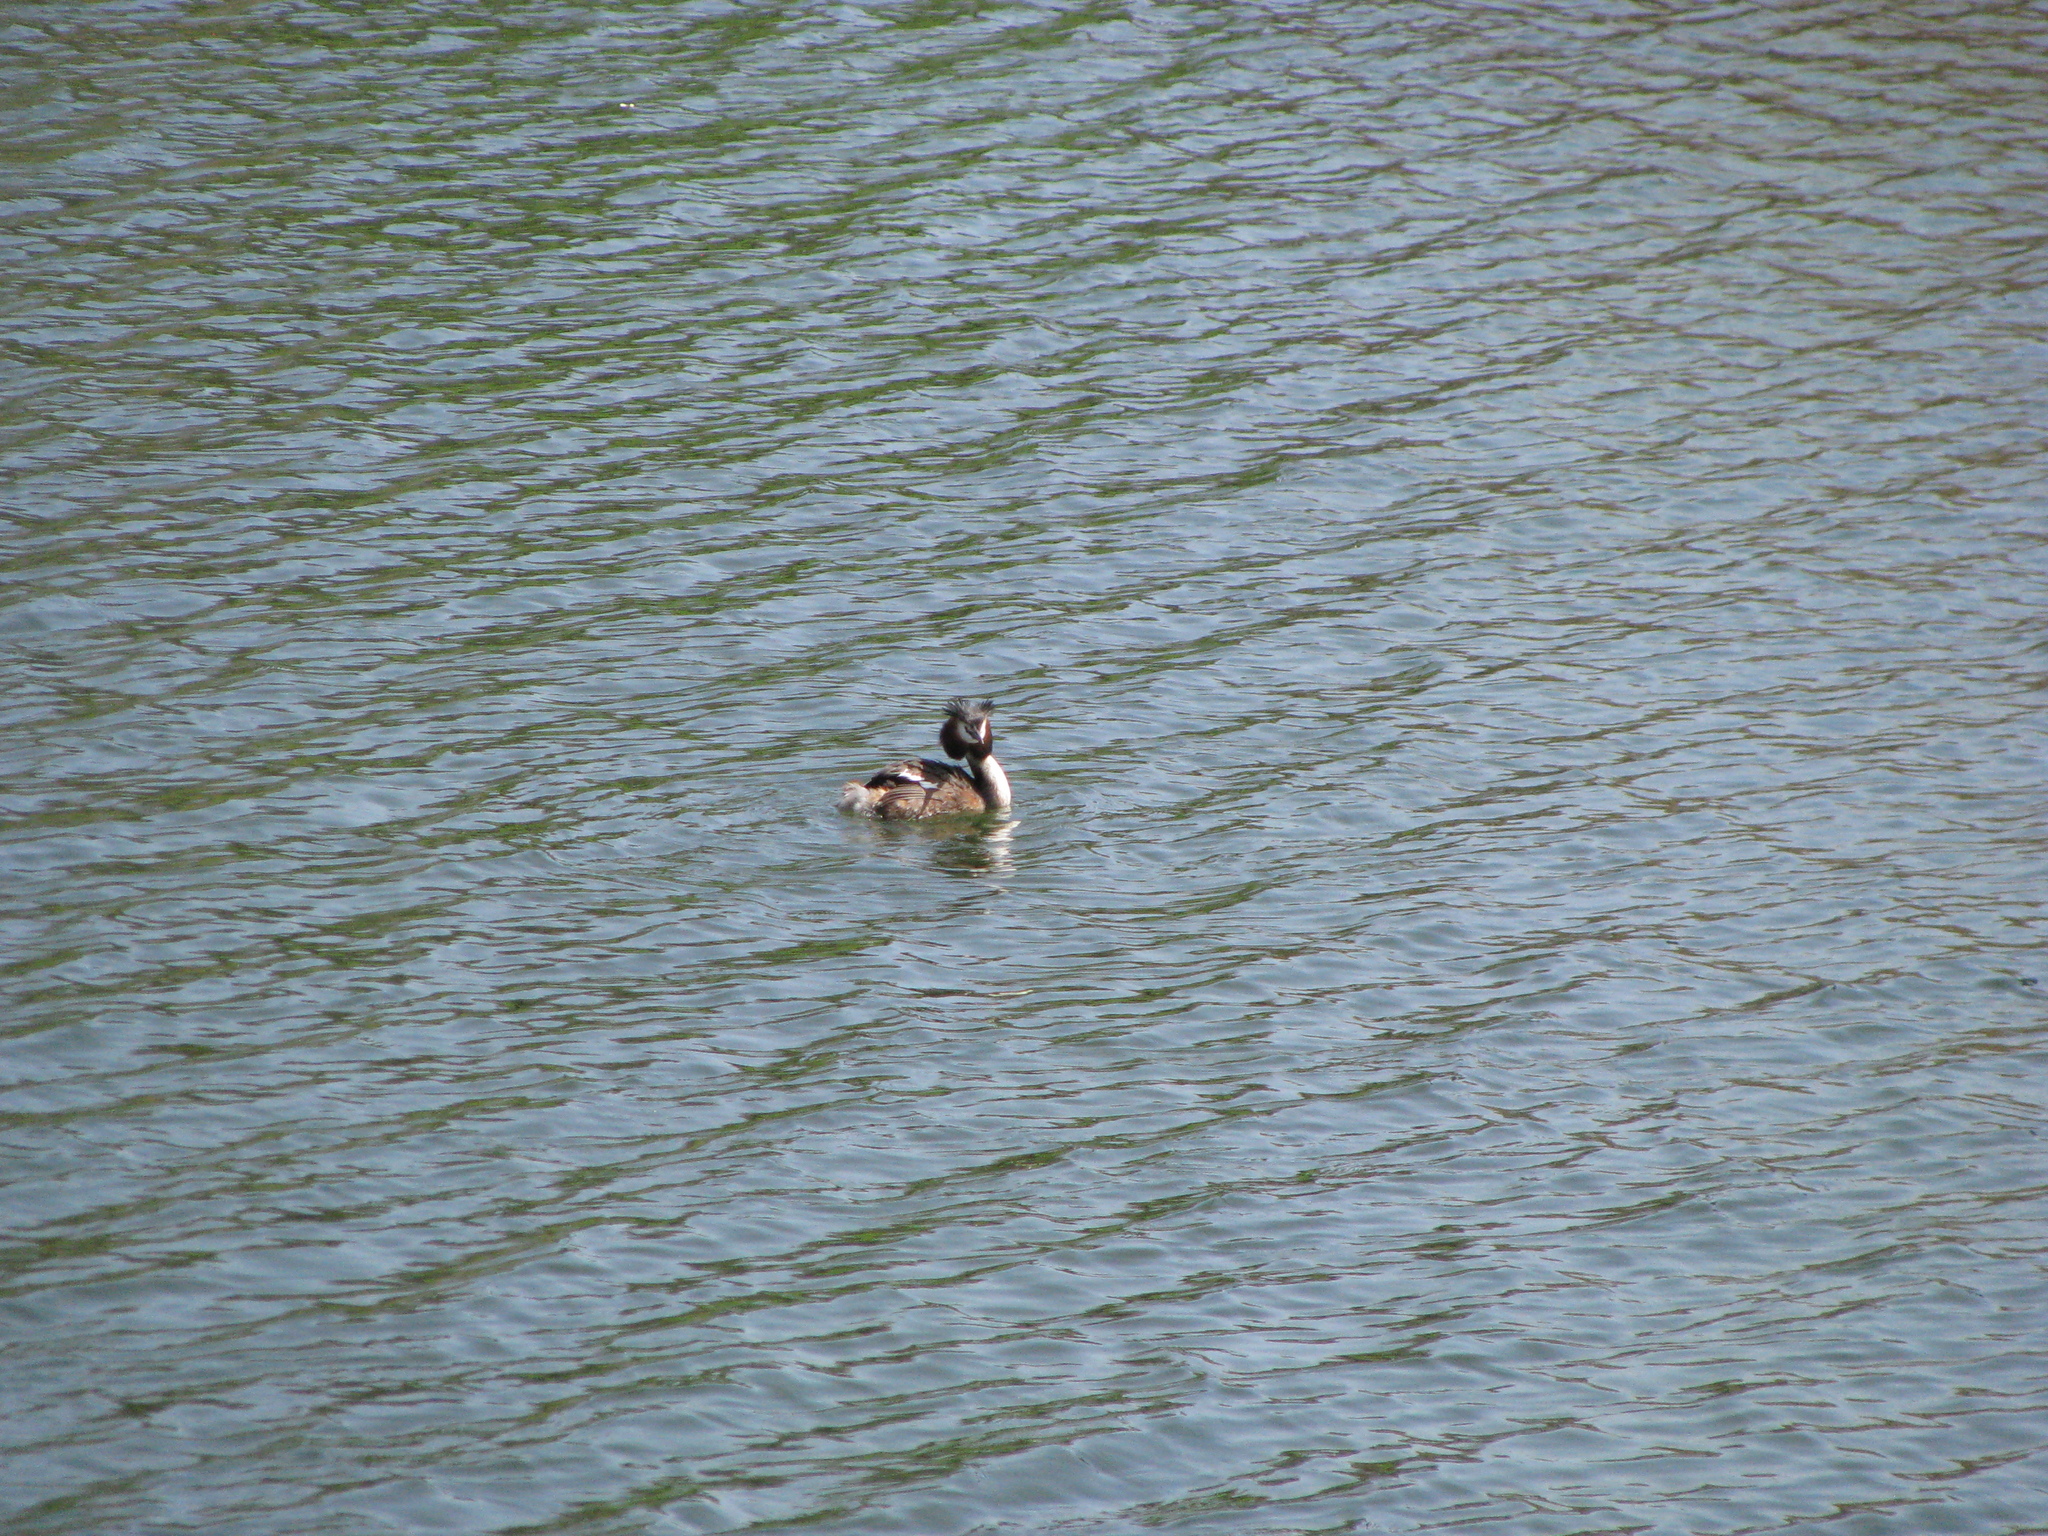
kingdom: Animalia
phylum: Chordata
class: Aves
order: Podicipediformes
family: Podicipedidae
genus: Podiceps
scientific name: Podiceps cristatus
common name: Great crested grebe
